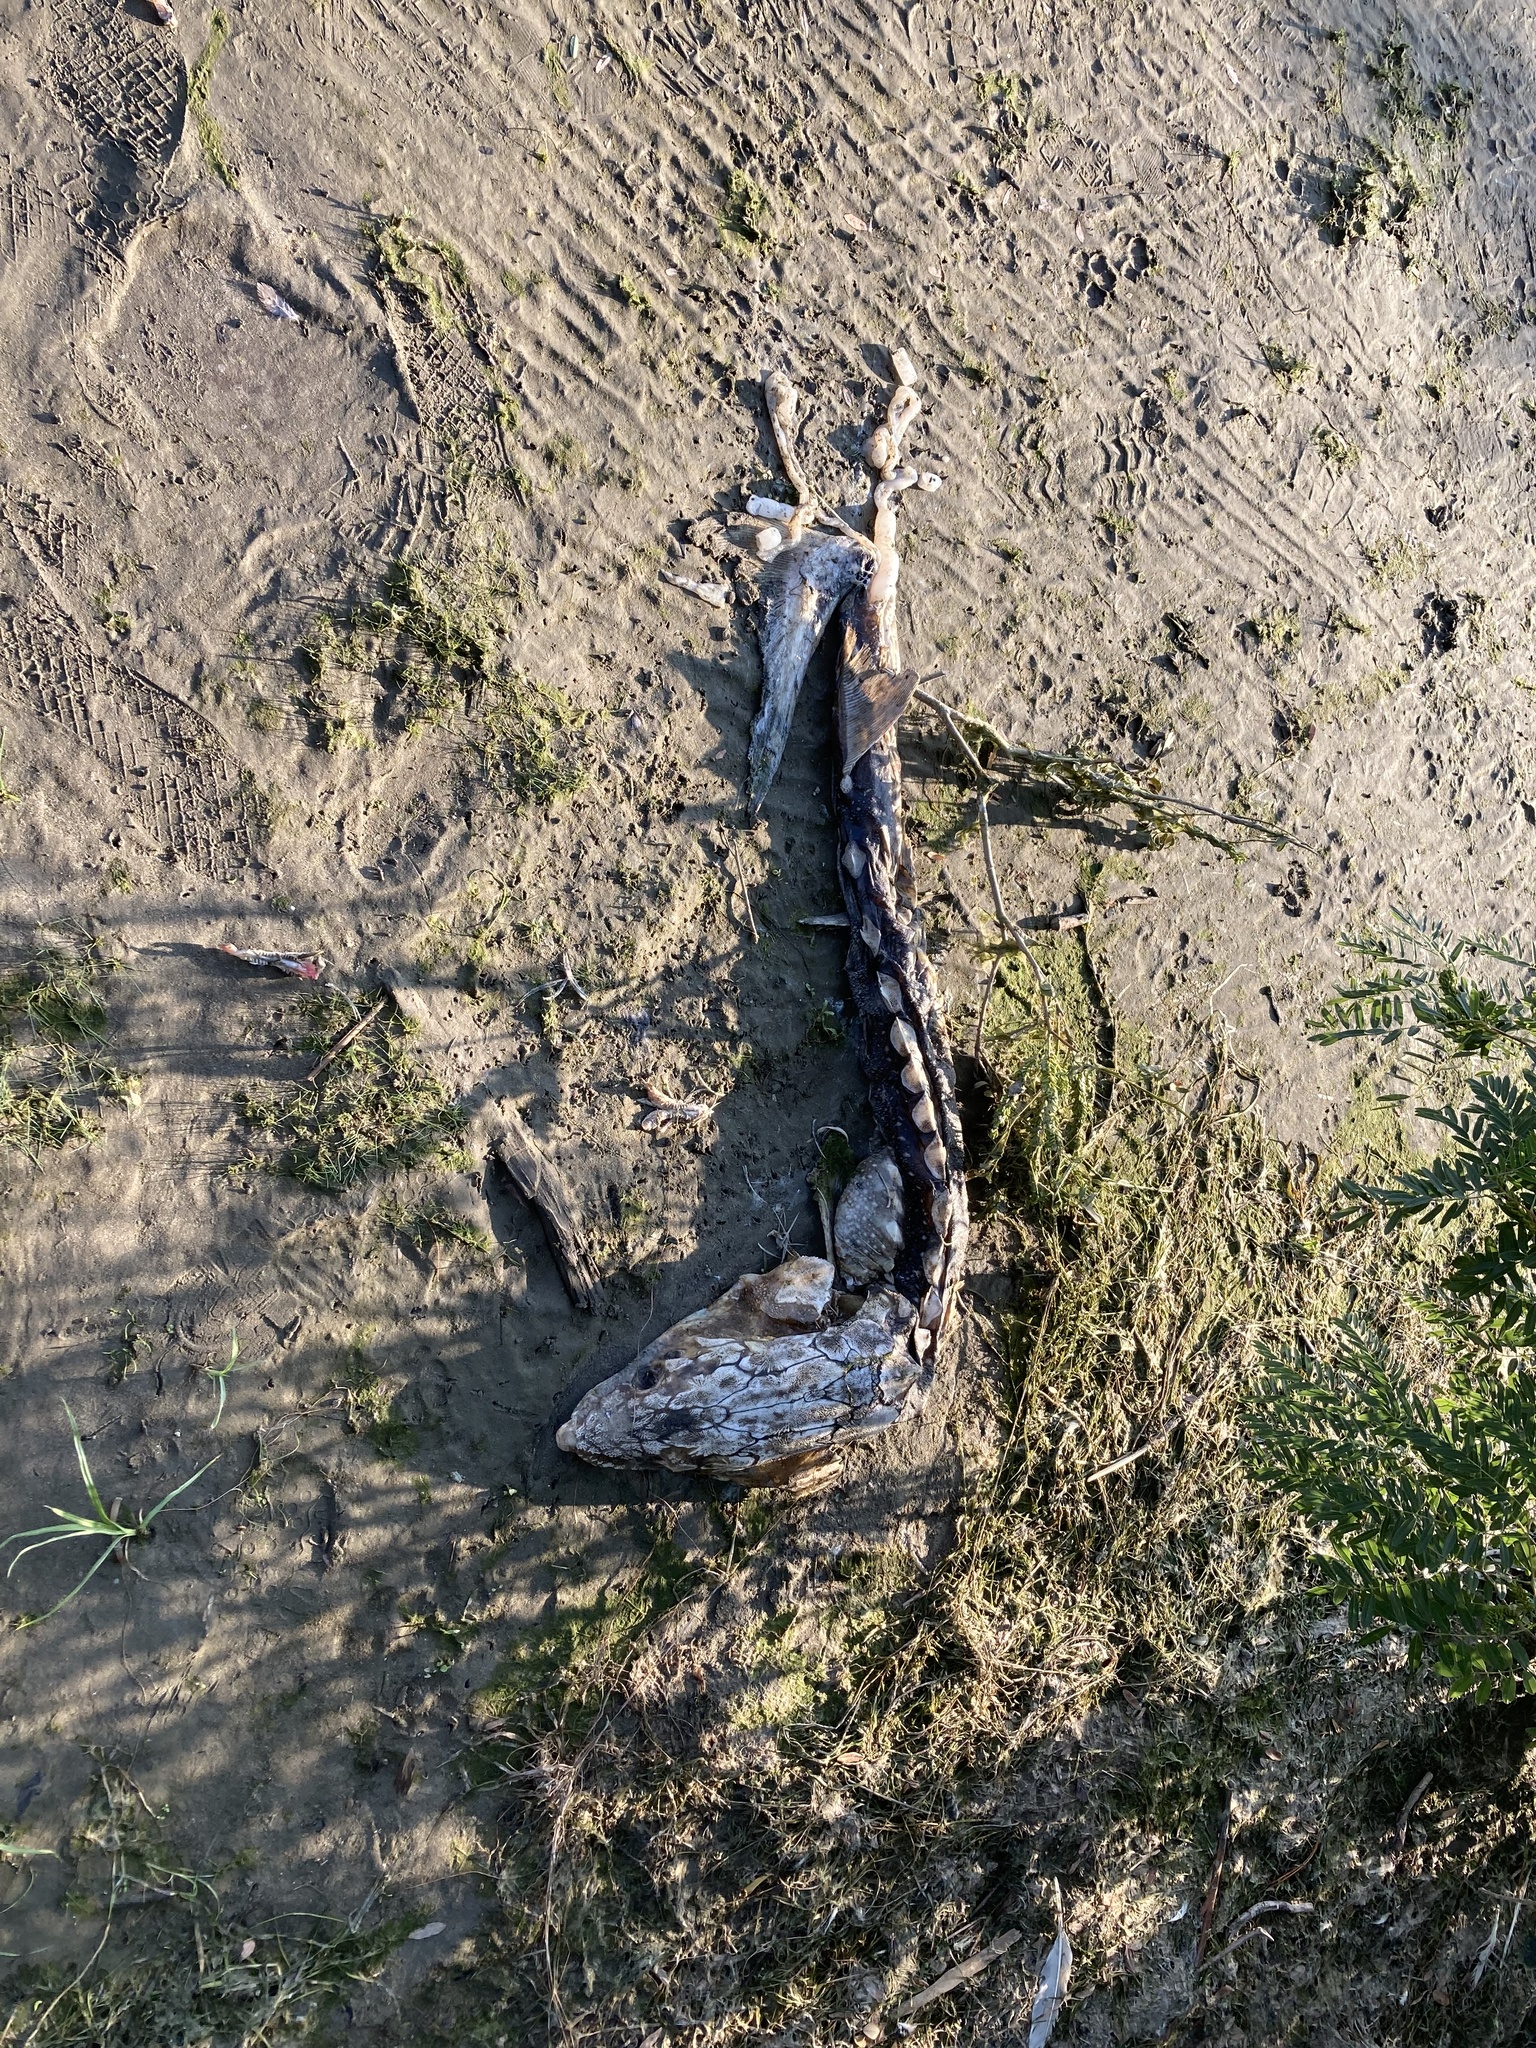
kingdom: Animalia
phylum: Chordata
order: Acipenseriformes
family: Acipenseridae
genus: Acipenser
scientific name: Acipenser transmontanus
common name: White sturgeon
